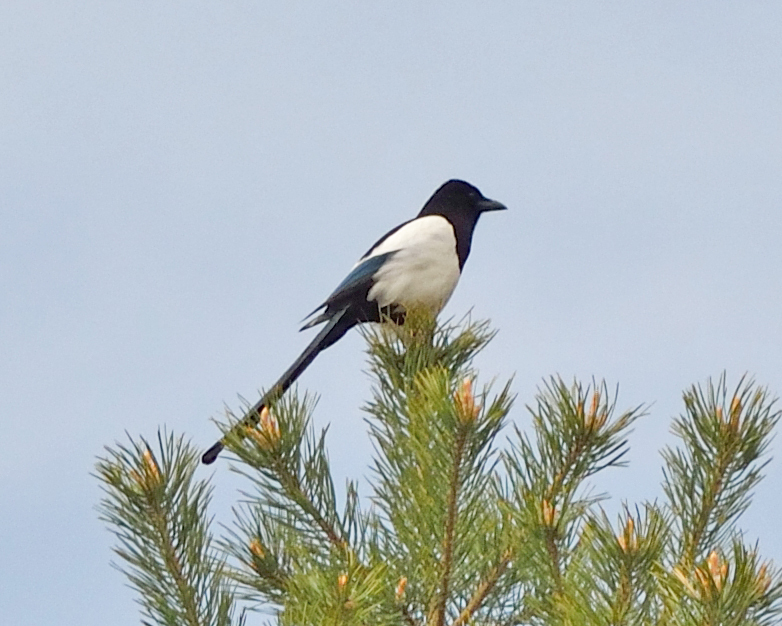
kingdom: Animalia
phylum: Chordata
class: Aves
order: Passeriformes
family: Corvidae
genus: Pica
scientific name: Pica pica
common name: Eurasian magpie
